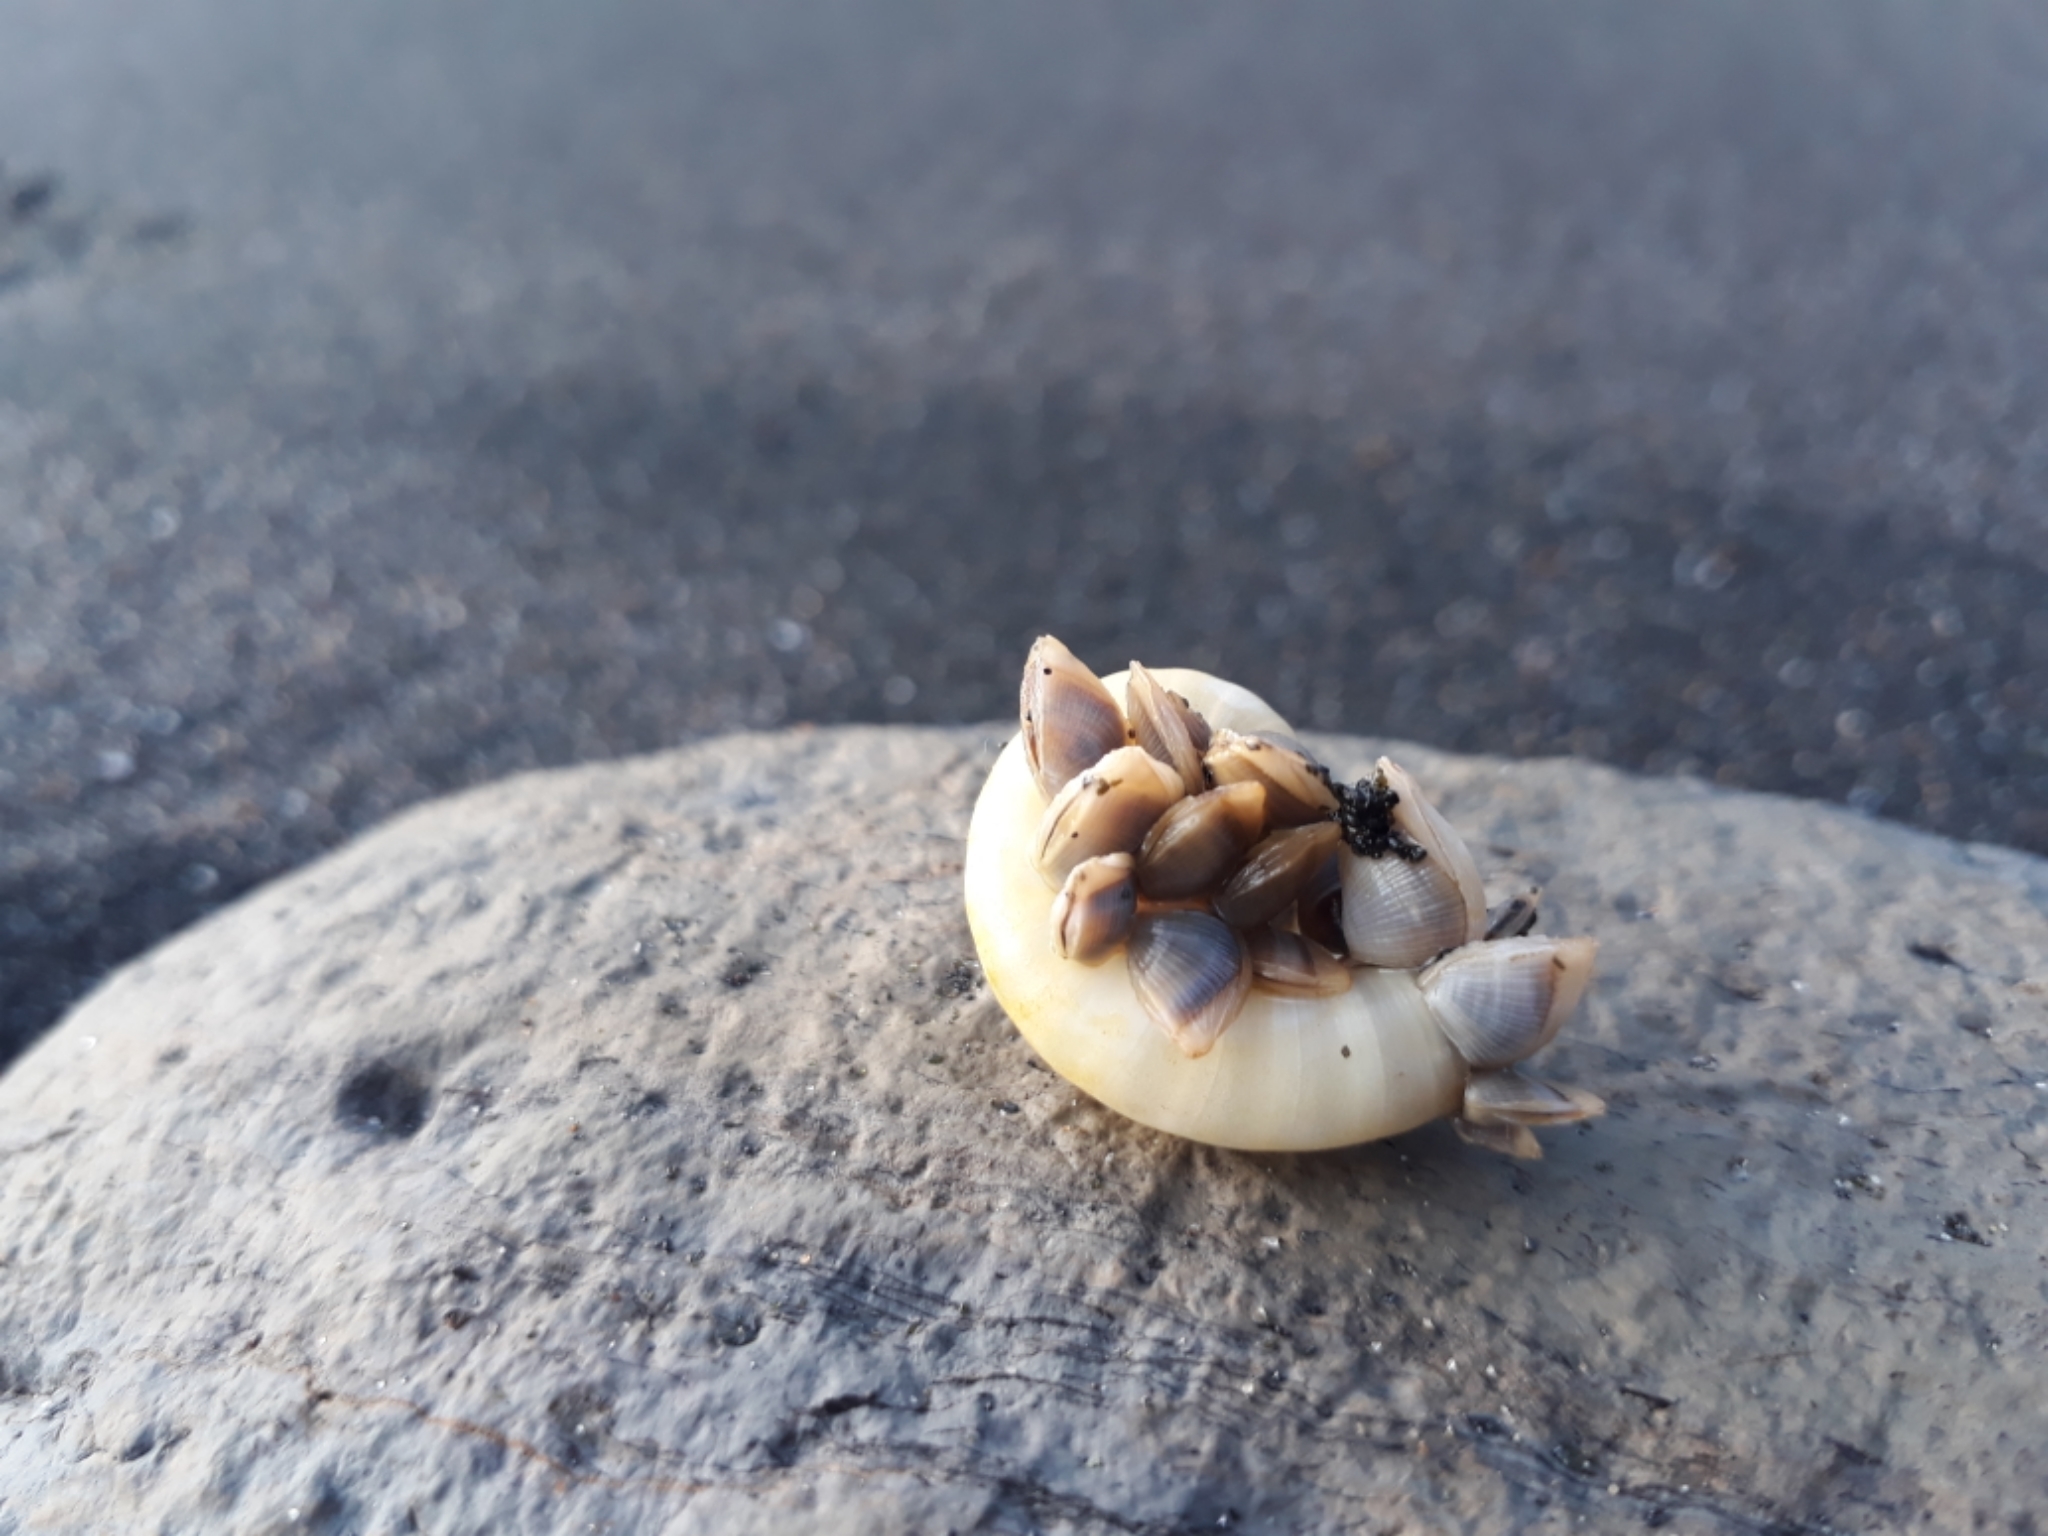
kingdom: Animalia
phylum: Arthropoda
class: Maxillopoda
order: Pedunculata
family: Lepadidae
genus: Lepas
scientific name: Lepas pectinata
